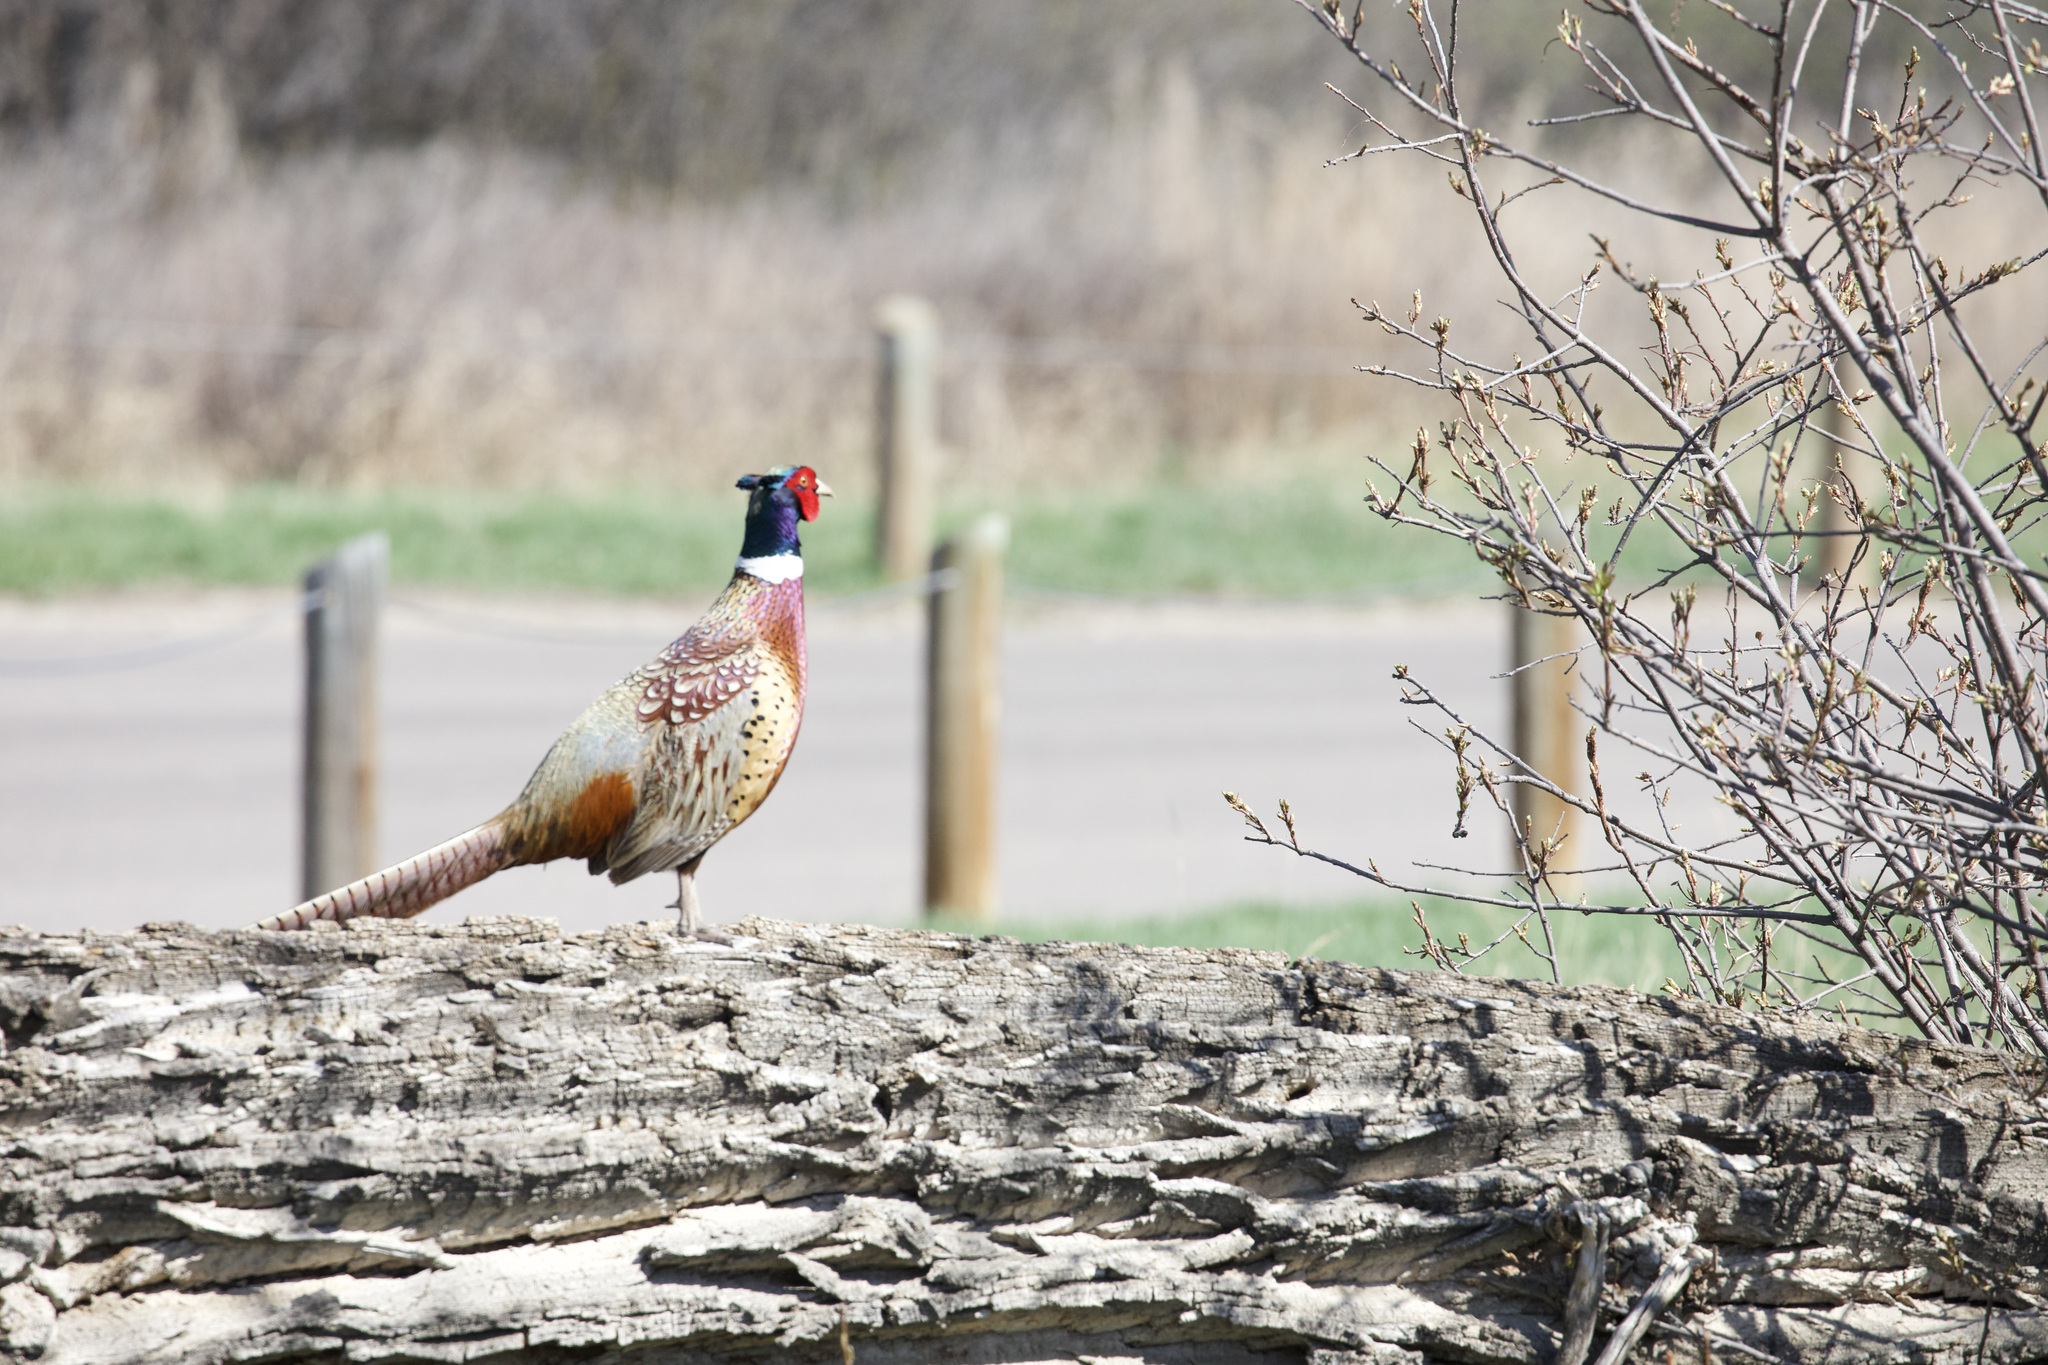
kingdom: Animalia
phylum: Chordata
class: Aves
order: Galliformes
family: Phasianidae
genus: Phasianus
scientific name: Phasianus colchicus
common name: Common pheasant
